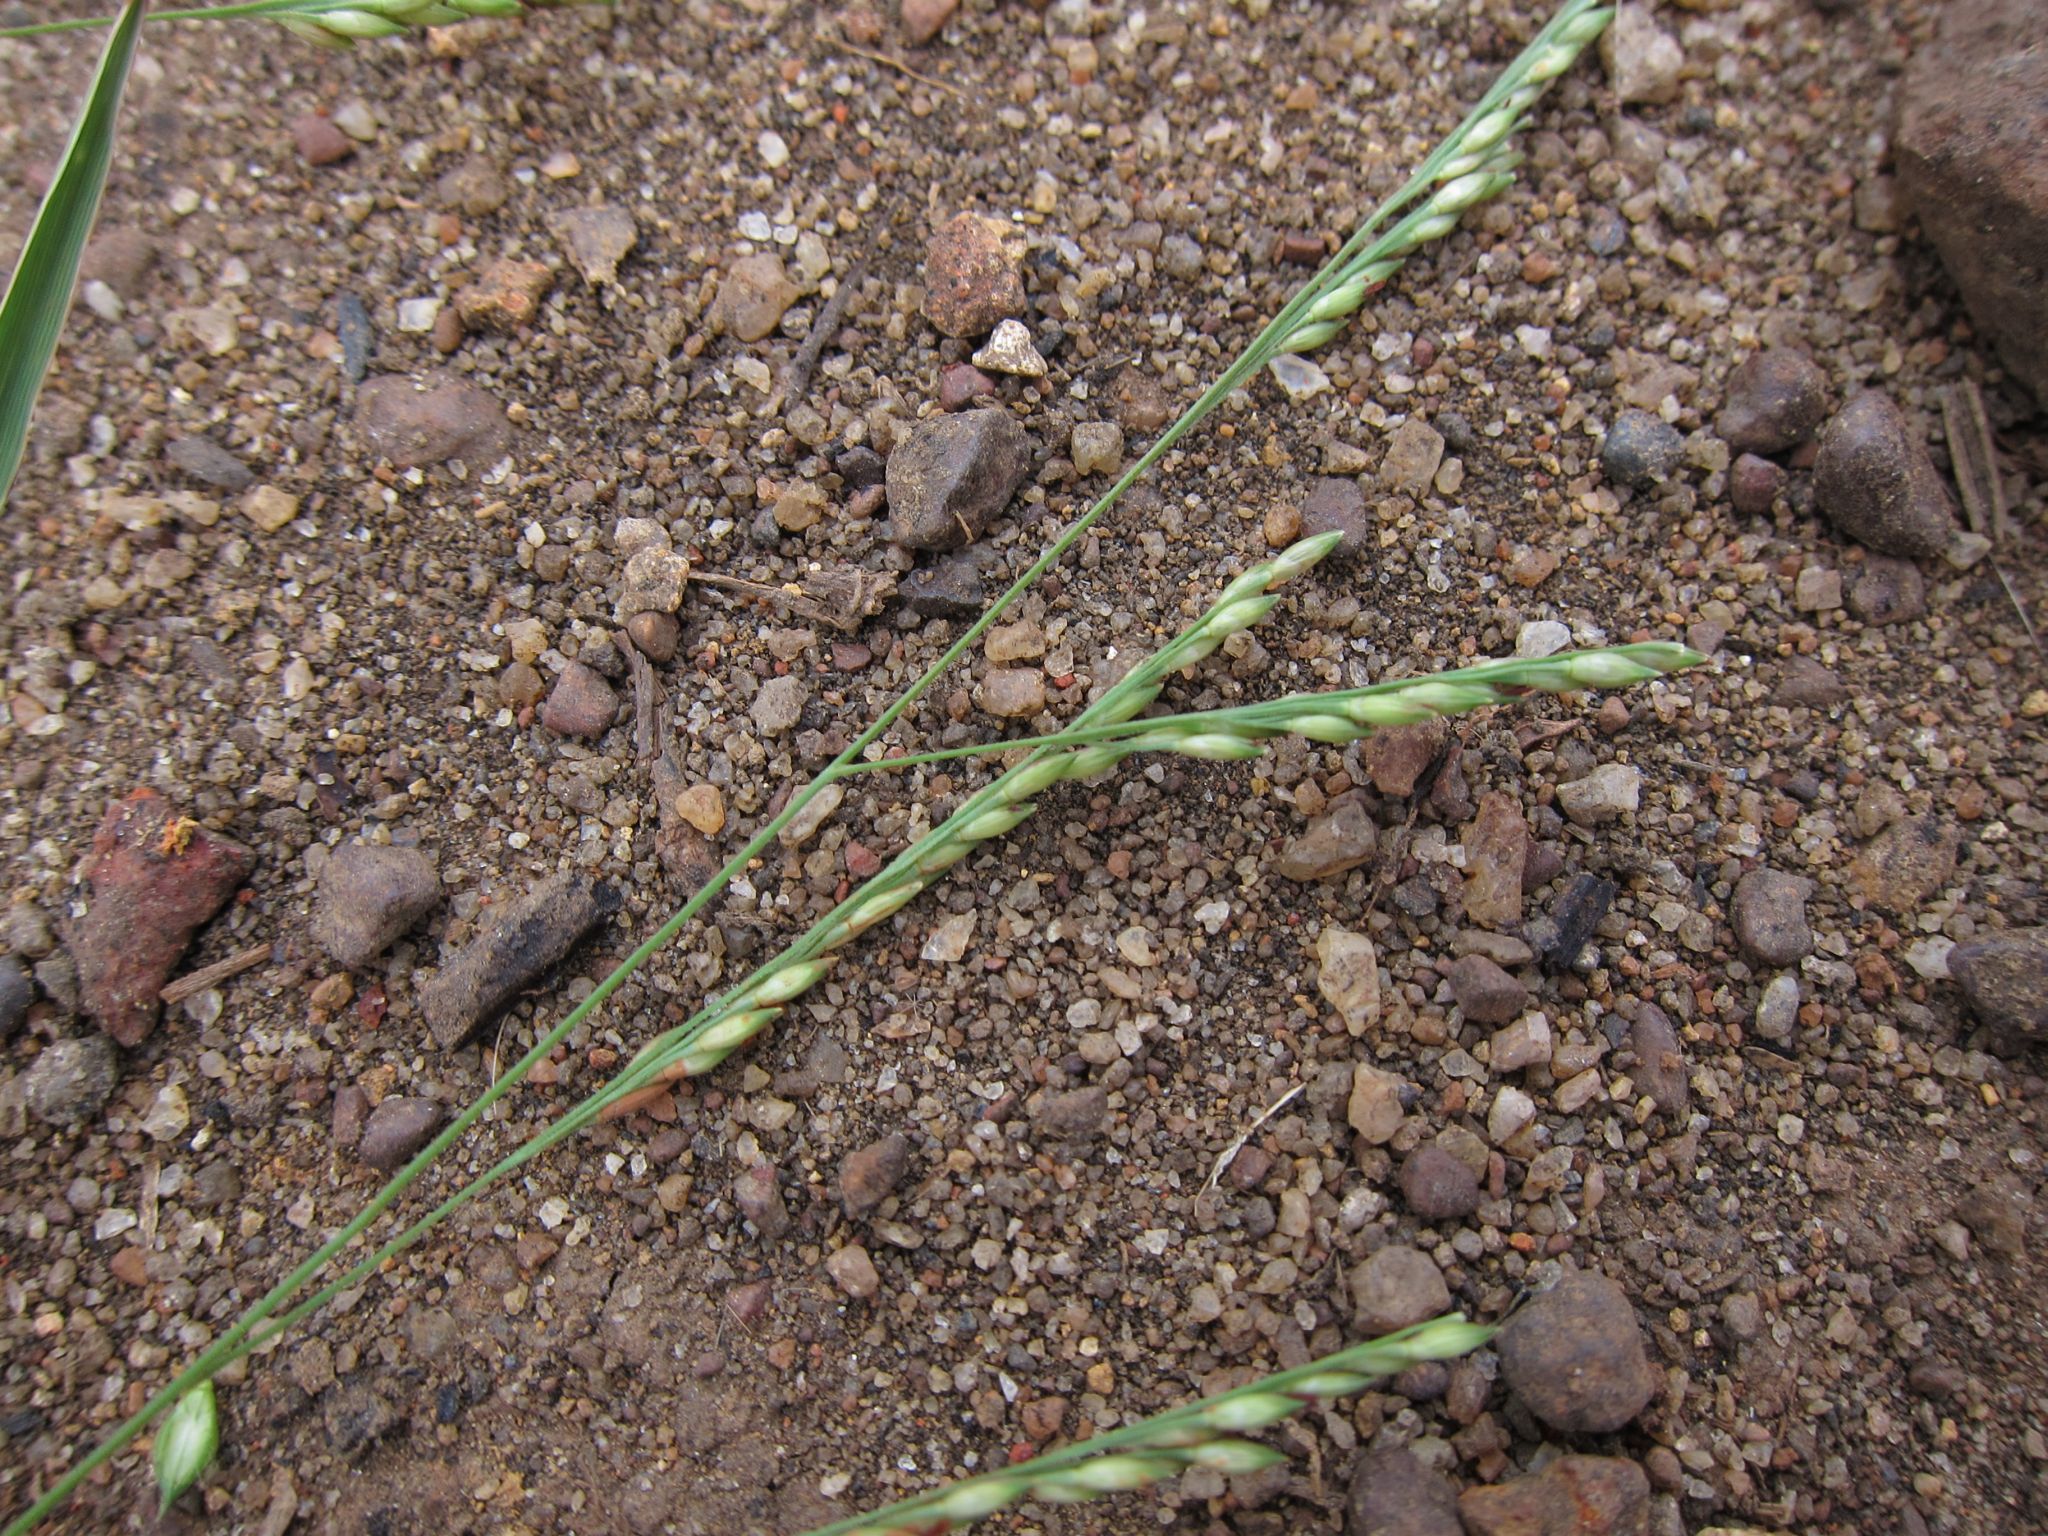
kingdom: Plantae
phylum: Tracheophyta
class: Liliopsida
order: Poales
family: Poaceae
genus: Panicum
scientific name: Panicum subalbidum
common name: Elbow buffalo grass
